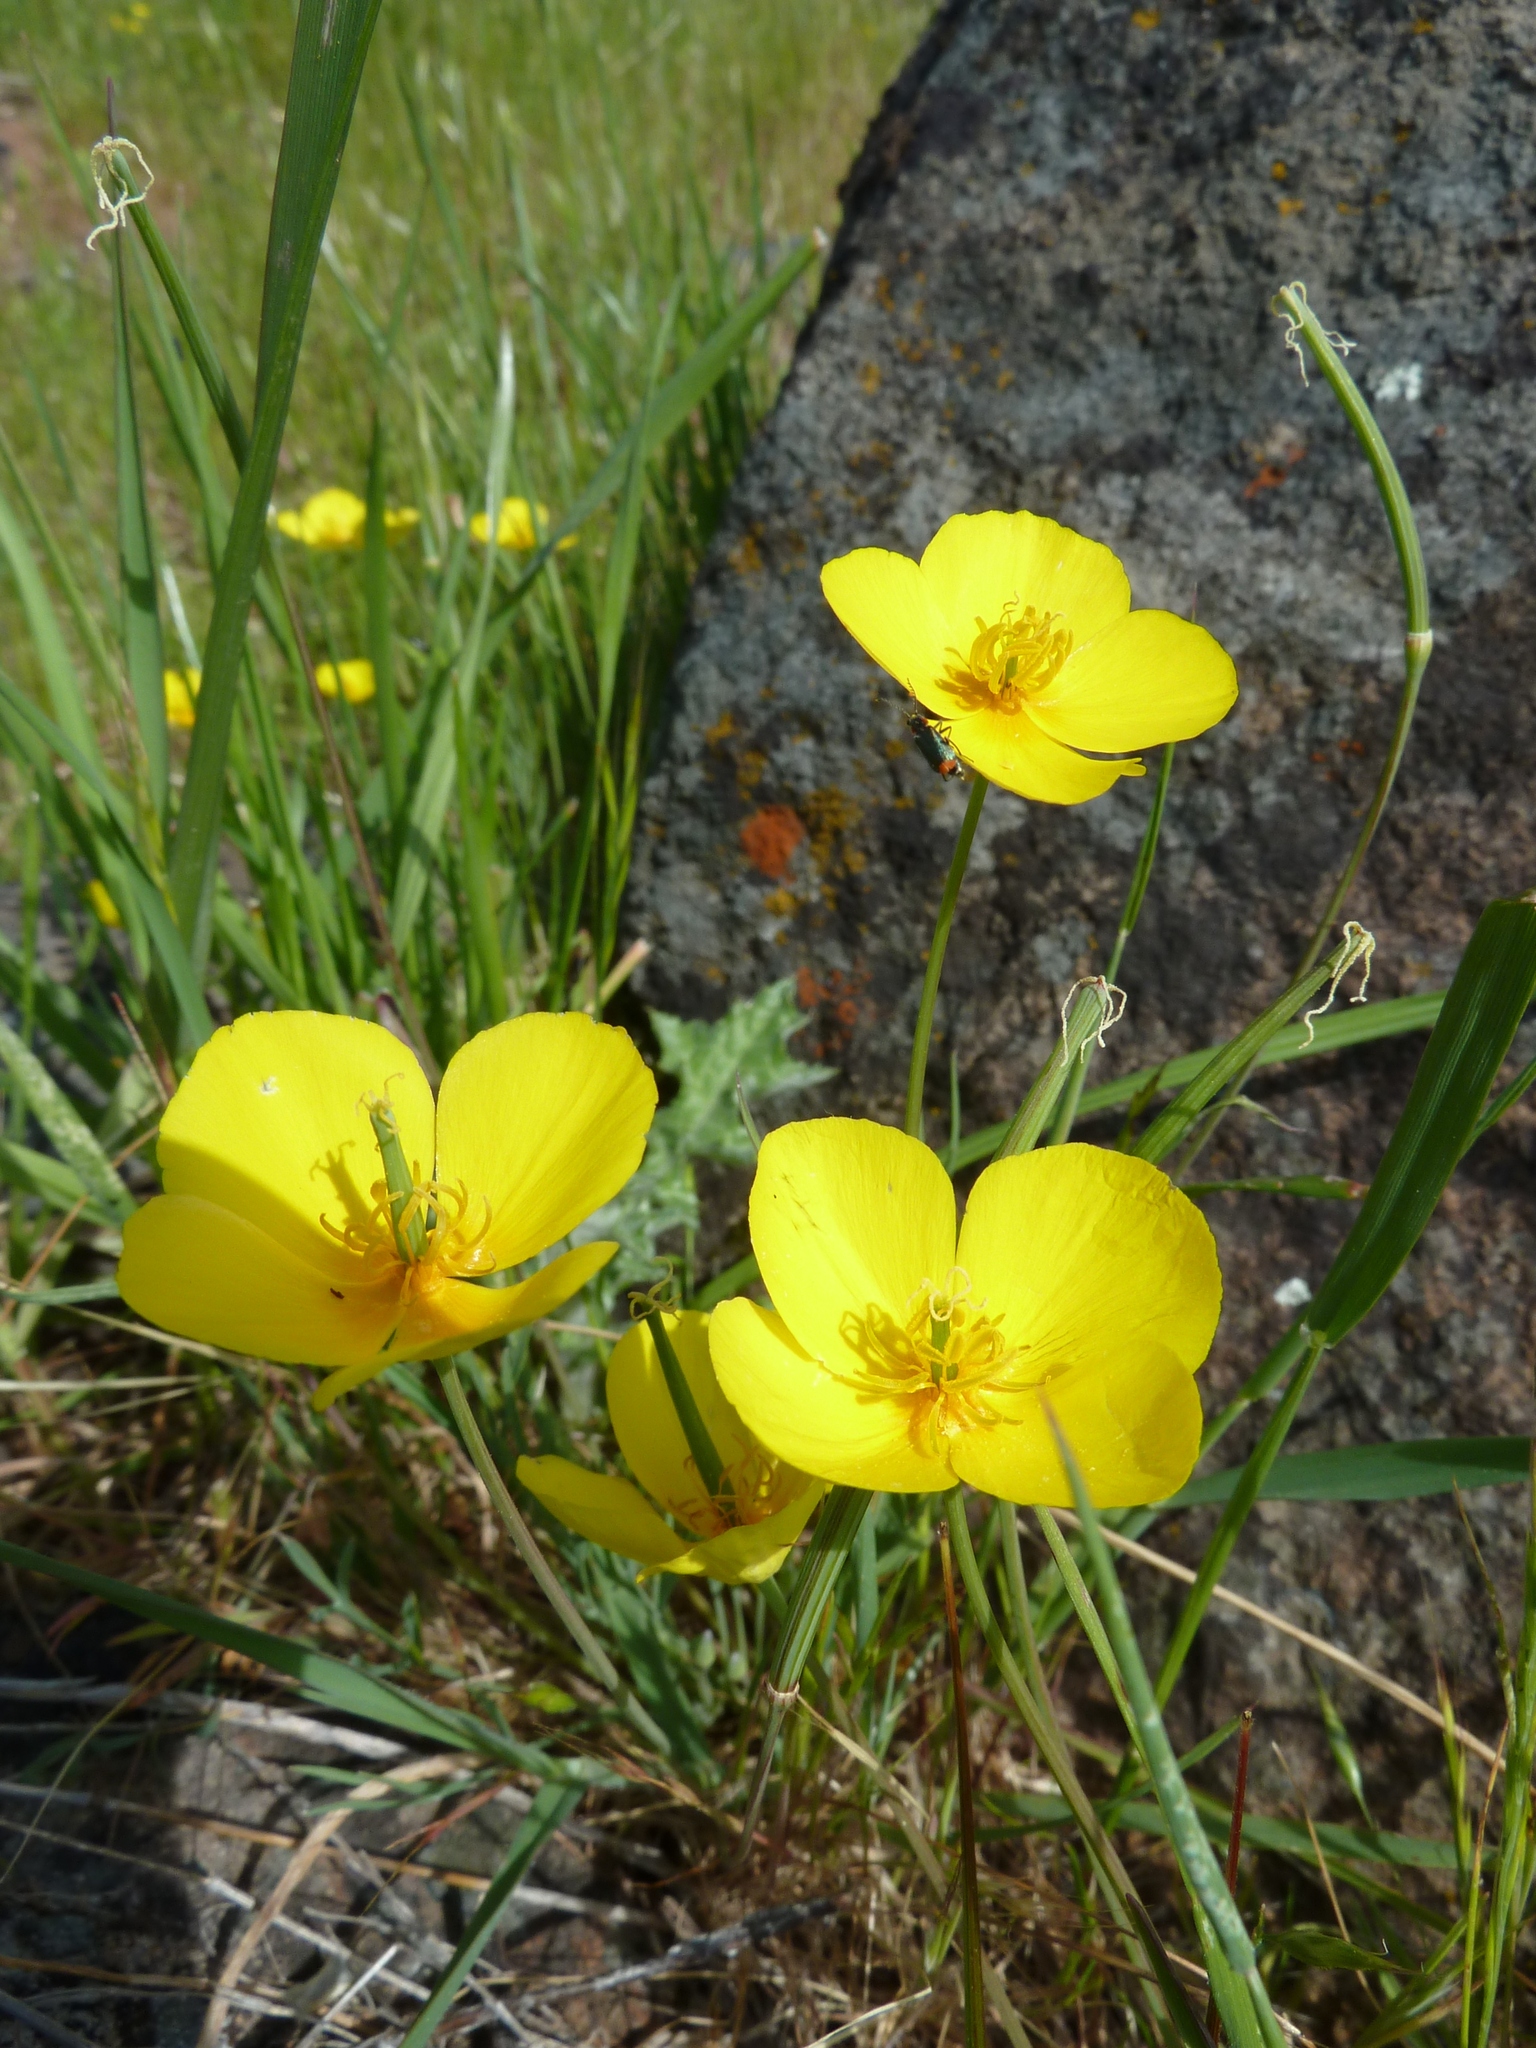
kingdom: Plantae
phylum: Tracheophyta
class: Magnoliopsida
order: Ranunculales
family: Papaveraceae
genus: Eschscholzia
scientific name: Eschscholzia lobbii
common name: Frying-pans
